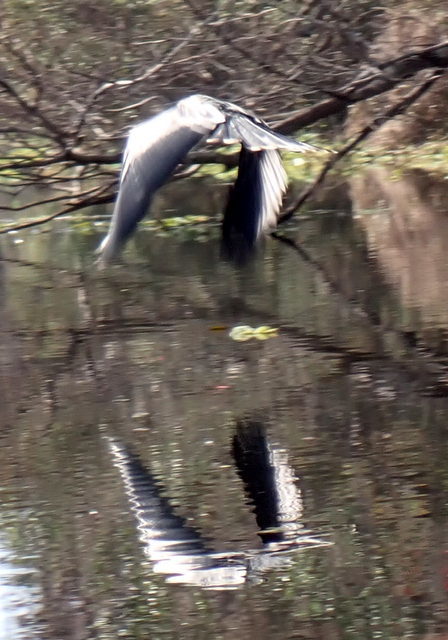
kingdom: Animalia
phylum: Chordata
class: Aves
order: Suliformes
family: Anhingidae
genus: Anhinga
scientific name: Anhinga anhinga
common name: Anhinga
